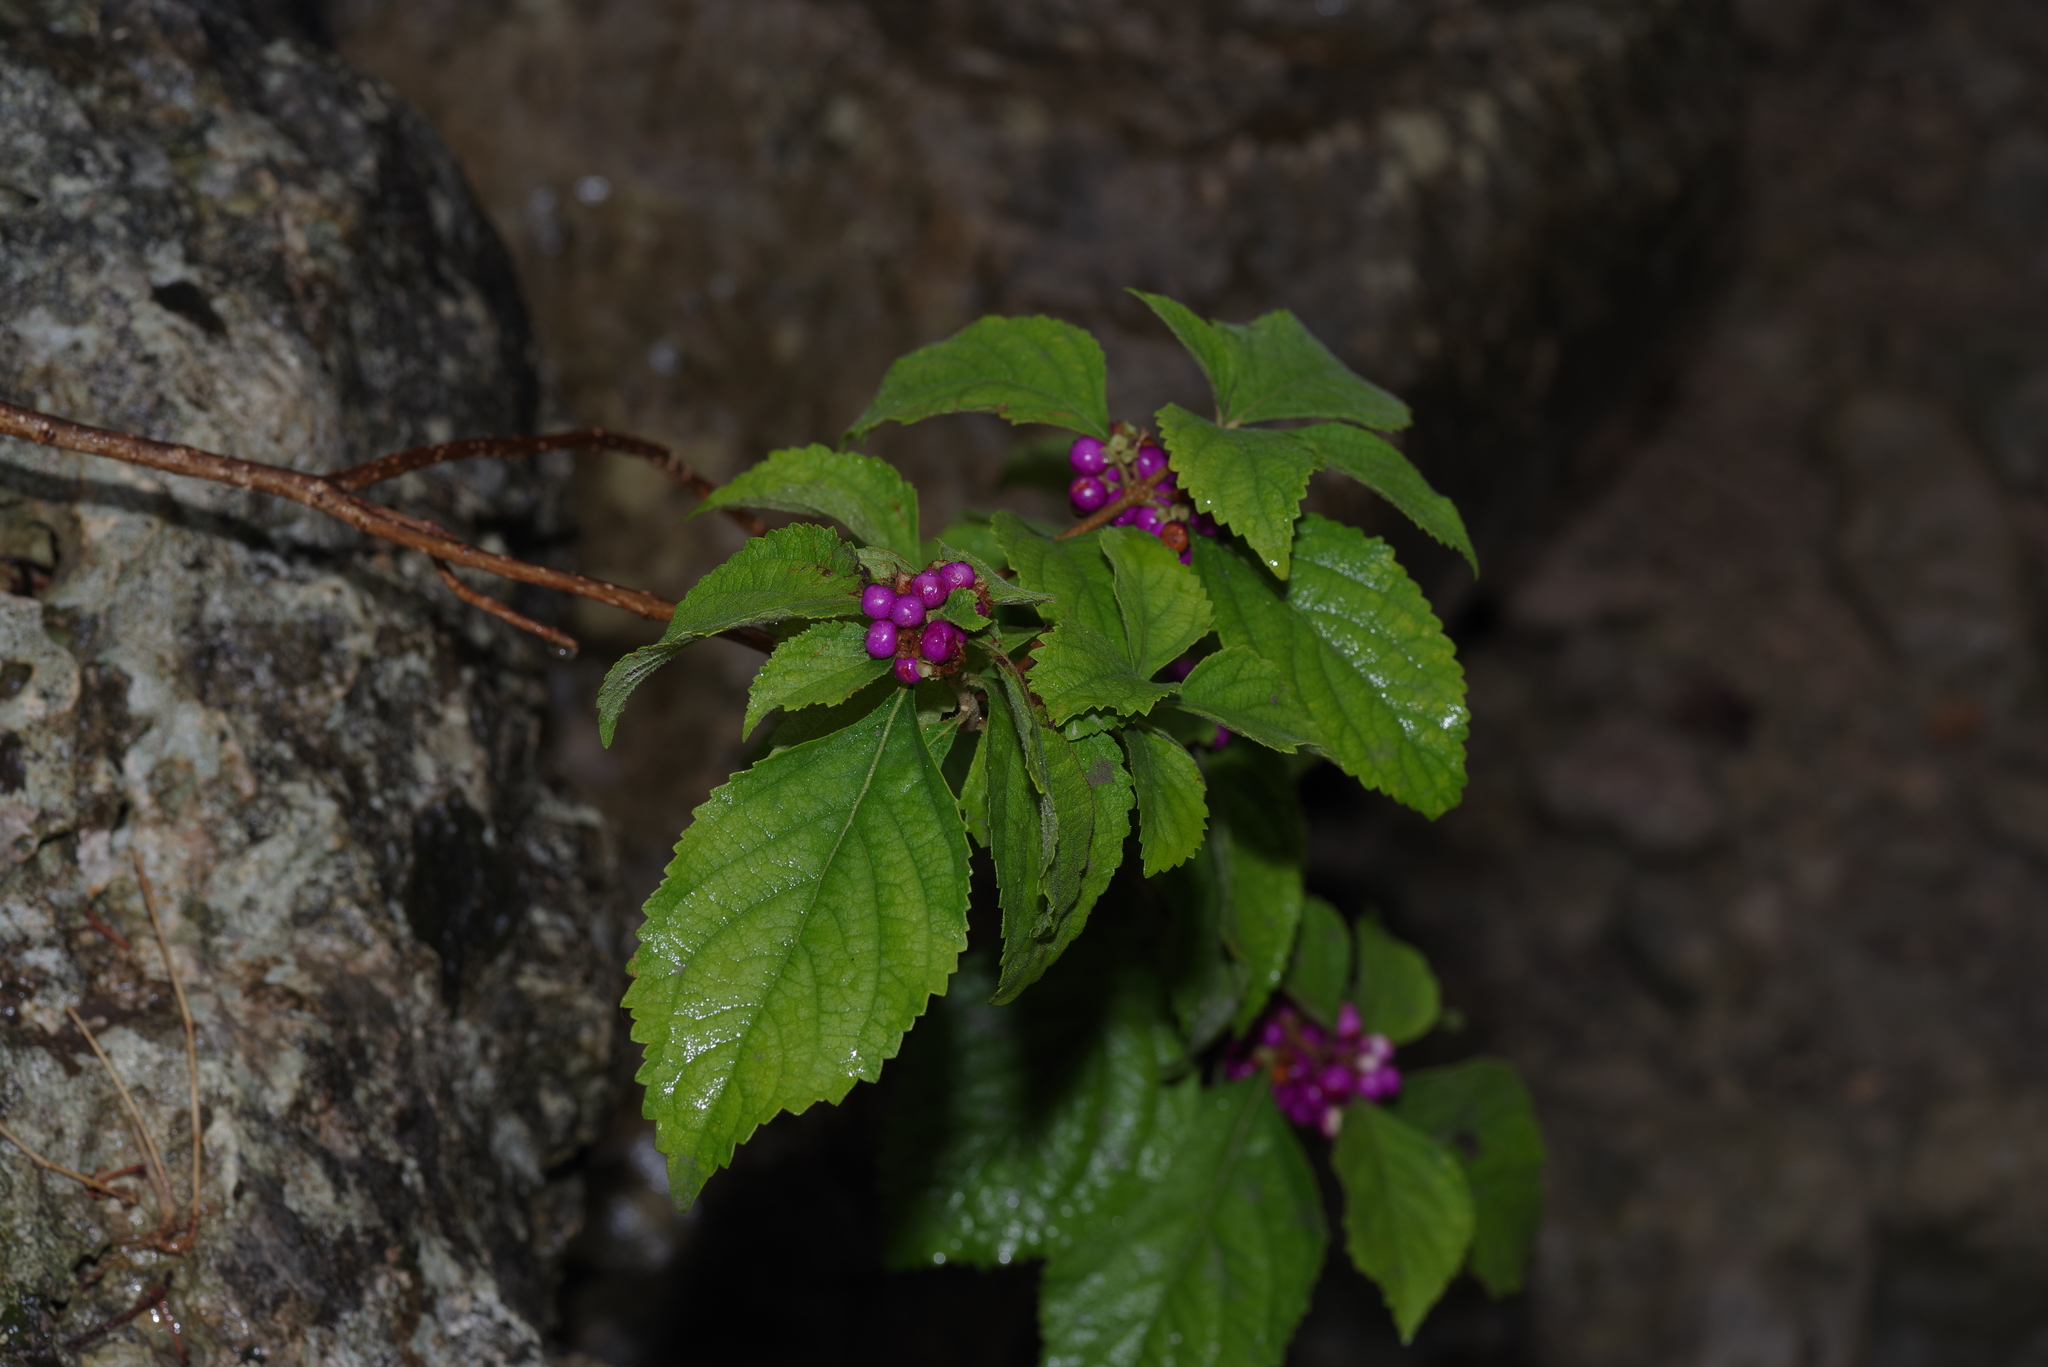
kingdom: Plantae
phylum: Tracheophyta
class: Magnoliopsida
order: Lamiales
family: Lamiaceae
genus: Callicarpa
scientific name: Callicarpa americana
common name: American beautyberry
